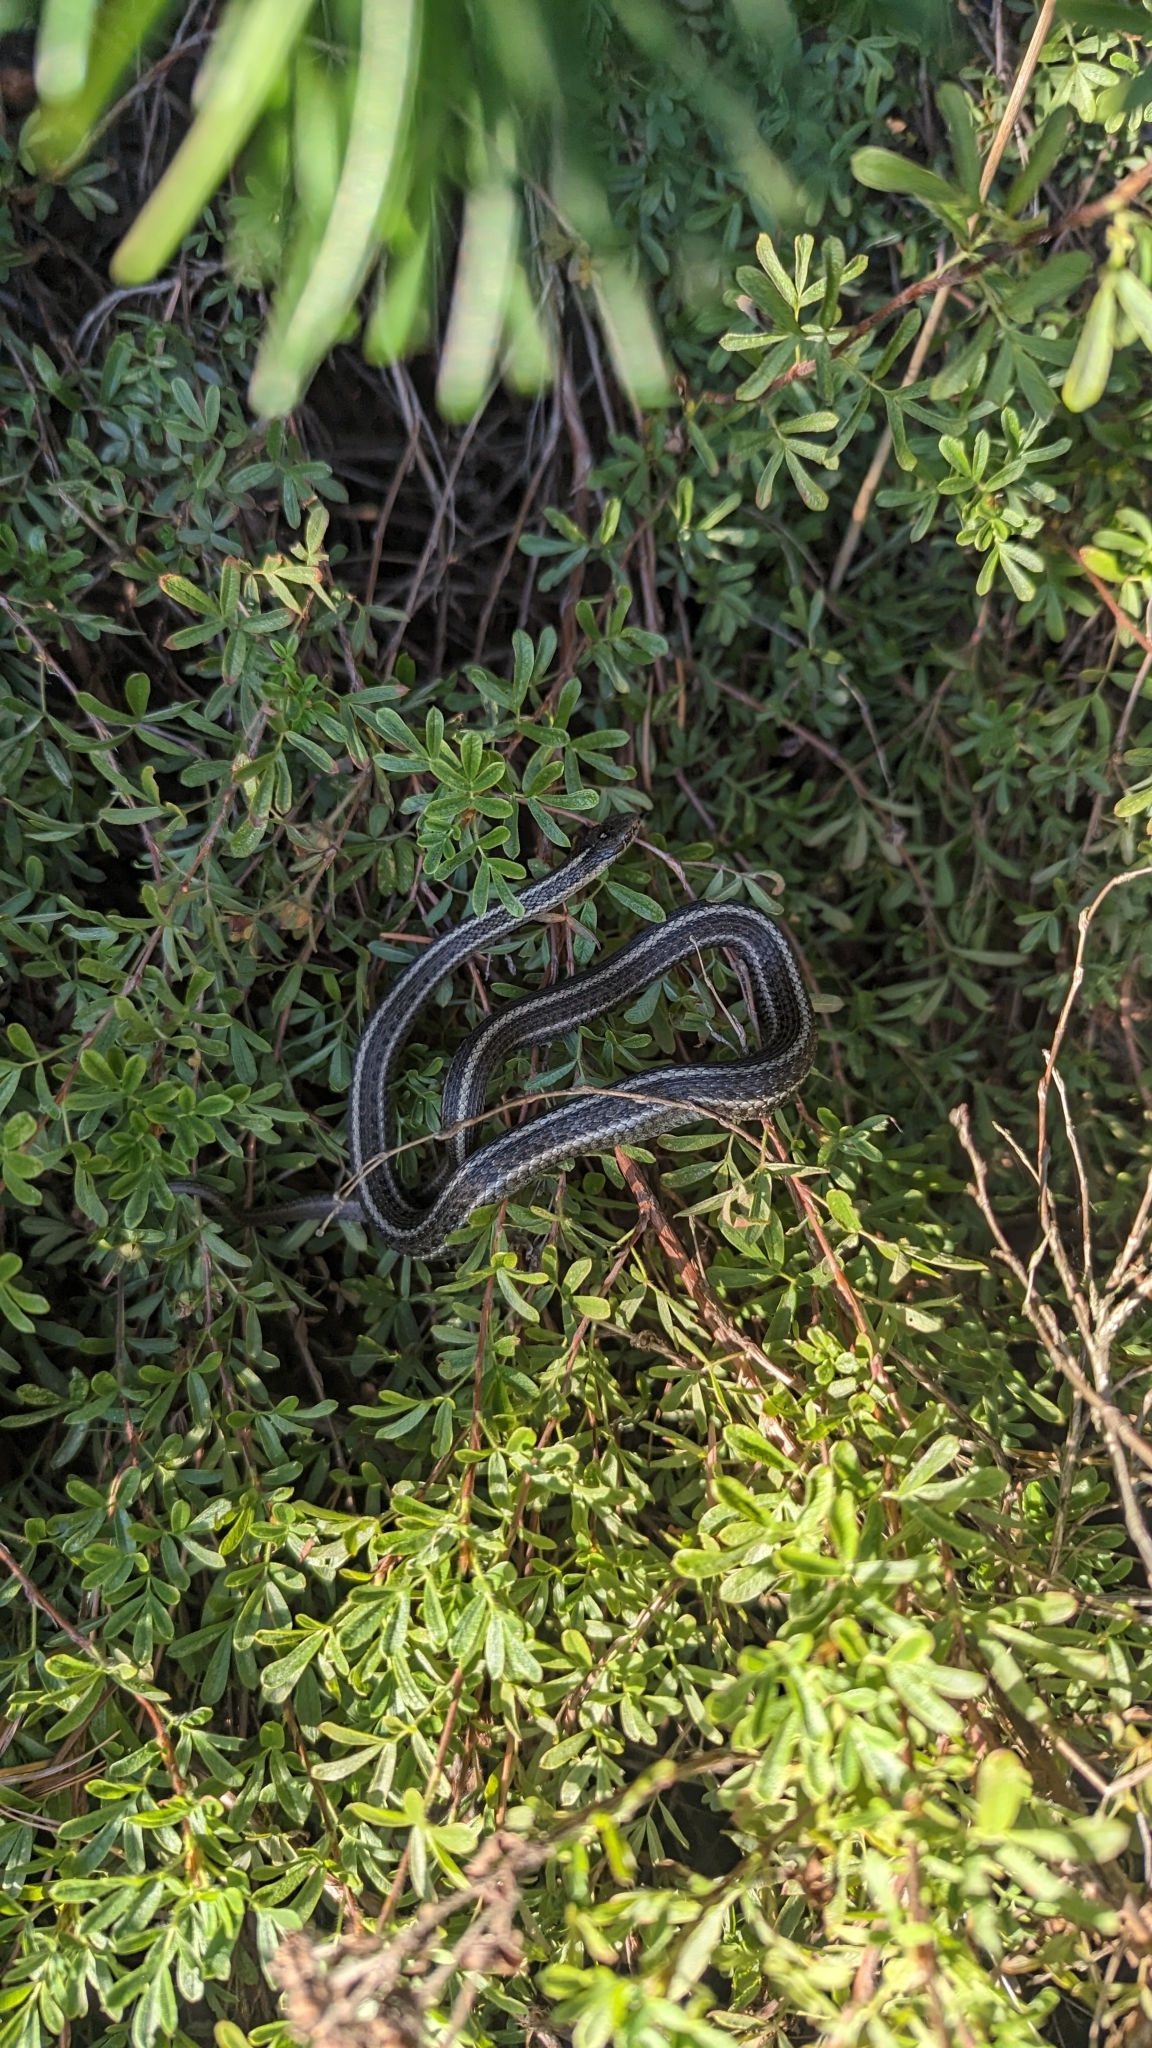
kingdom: Animalia
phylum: Chordata
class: Squamata
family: Colubridae
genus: Thamnophis
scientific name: Thamnophis ordinoides
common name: Northwestern garter snake
